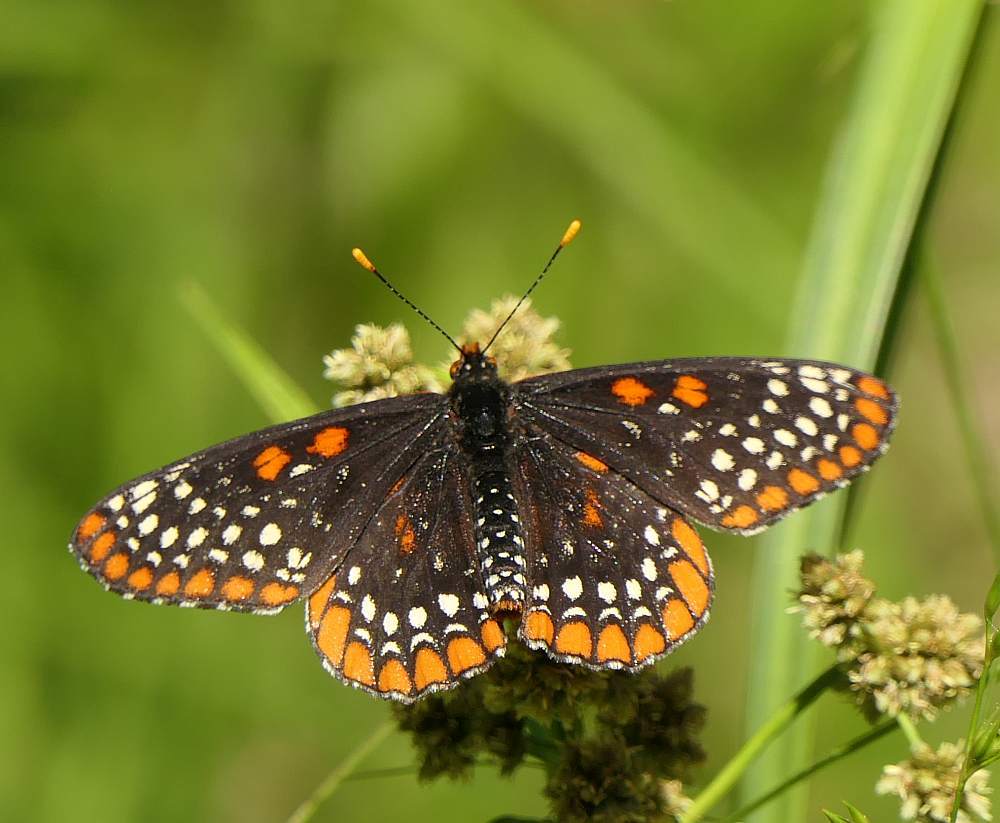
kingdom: Animalia
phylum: Arthropoda
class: Insecta
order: Lepidoptera
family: Nymphalidae
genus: Euphydryas
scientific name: Euphydryas phaeton
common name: Baltimore checkerspot
